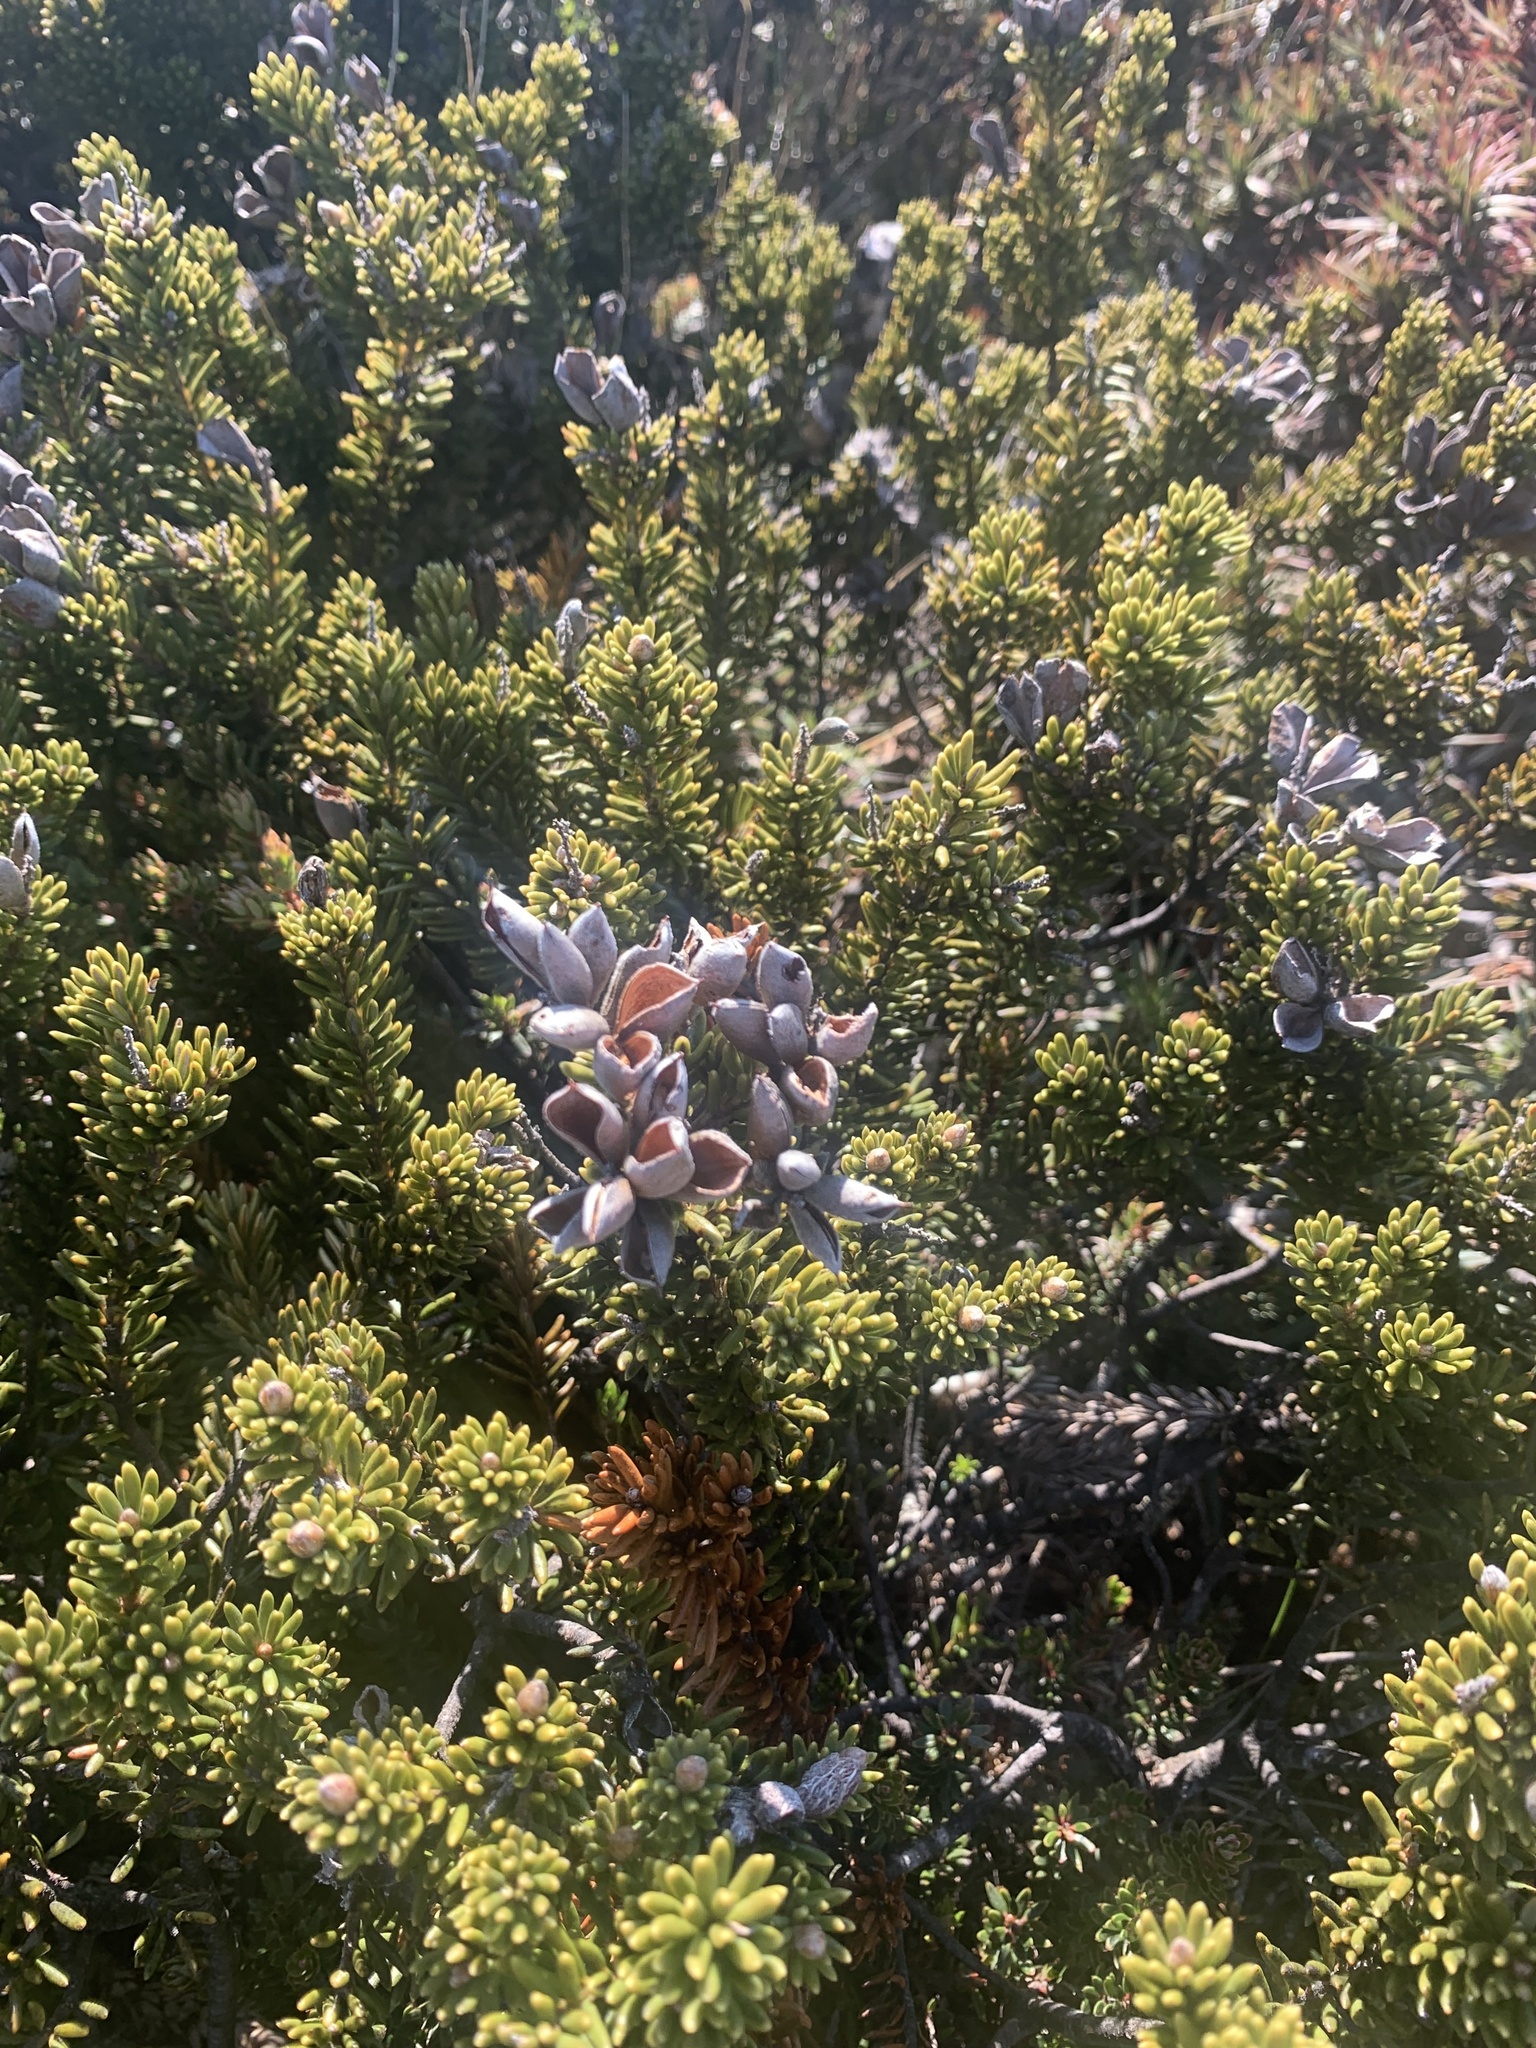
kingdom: Plantae
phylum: Tracheophyta
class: Magnoliopsida
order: Proteales
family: Proteaceae
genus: Orites
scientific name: Orites revolutus
